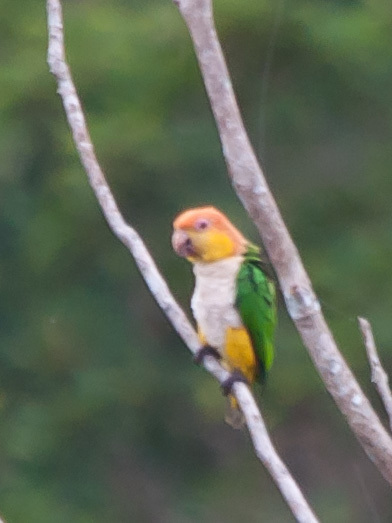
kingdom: Animalia
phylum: Chordata
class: Aves
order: Psittaciformes
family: Psittacidae
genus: Pionites
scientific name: Pionites leucogaster
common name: White-bellied parrot
